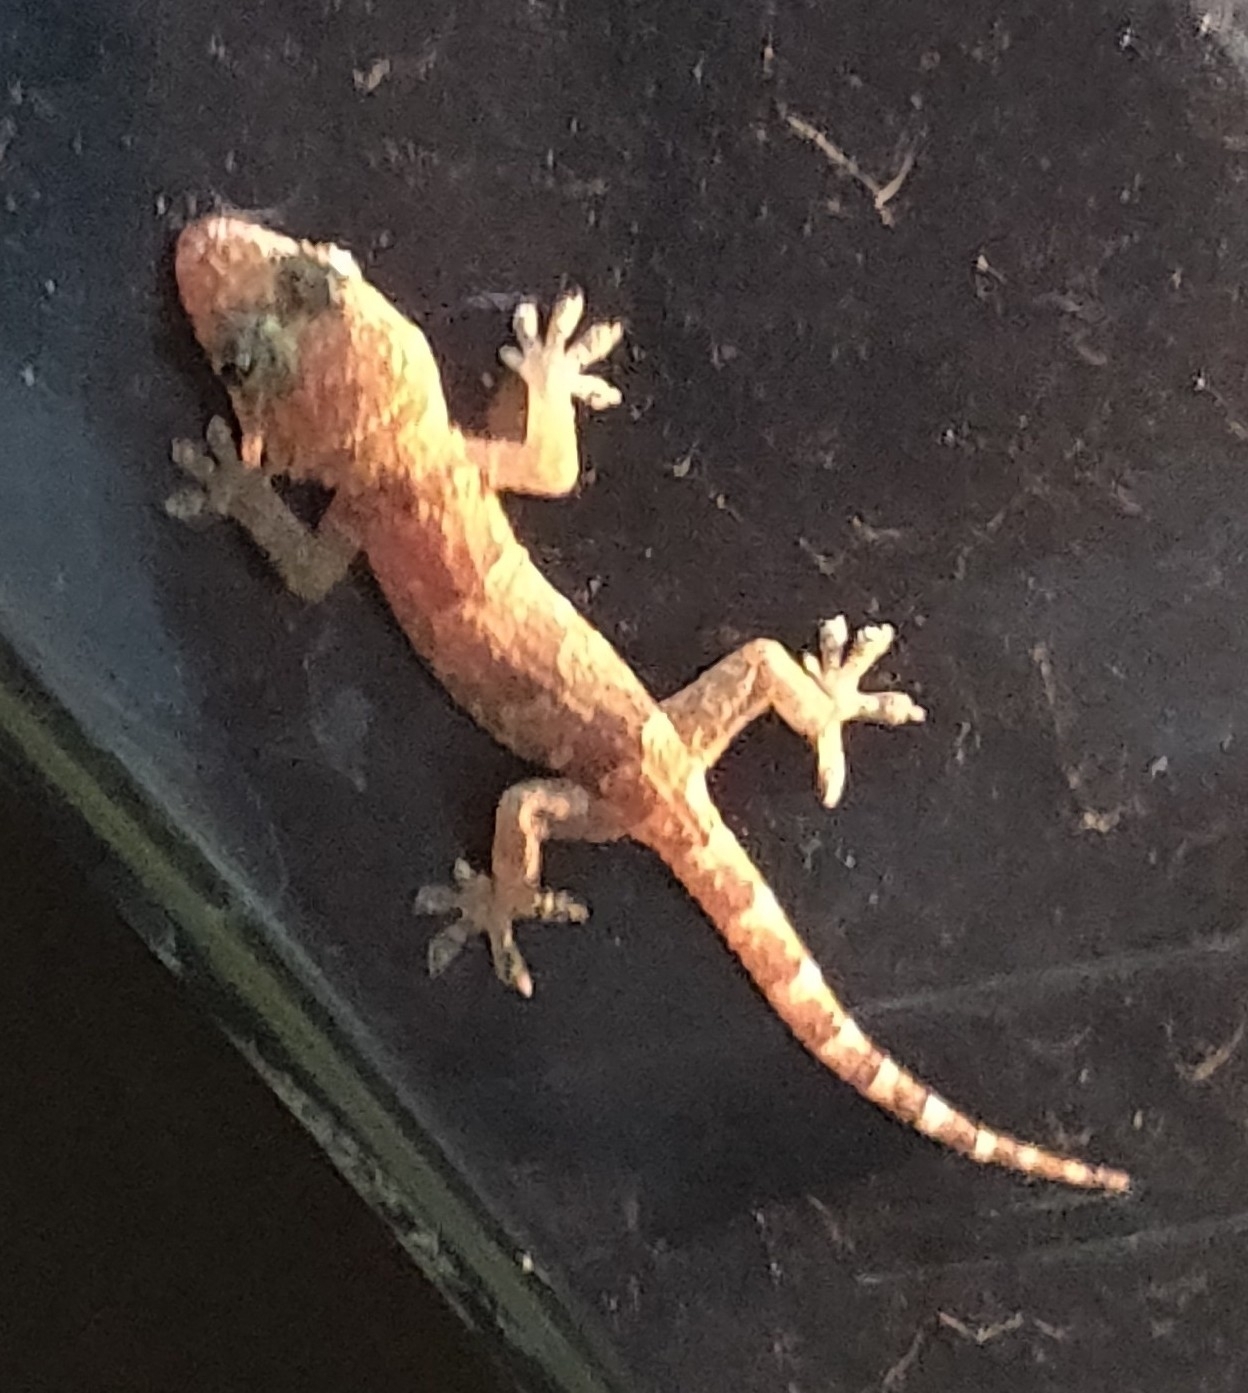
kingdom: Animalia
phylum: Chordata
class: Squamata
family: Gekkonidae
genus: Hemidactylus
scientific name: Hemidactylus mabouia
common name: House gecko
